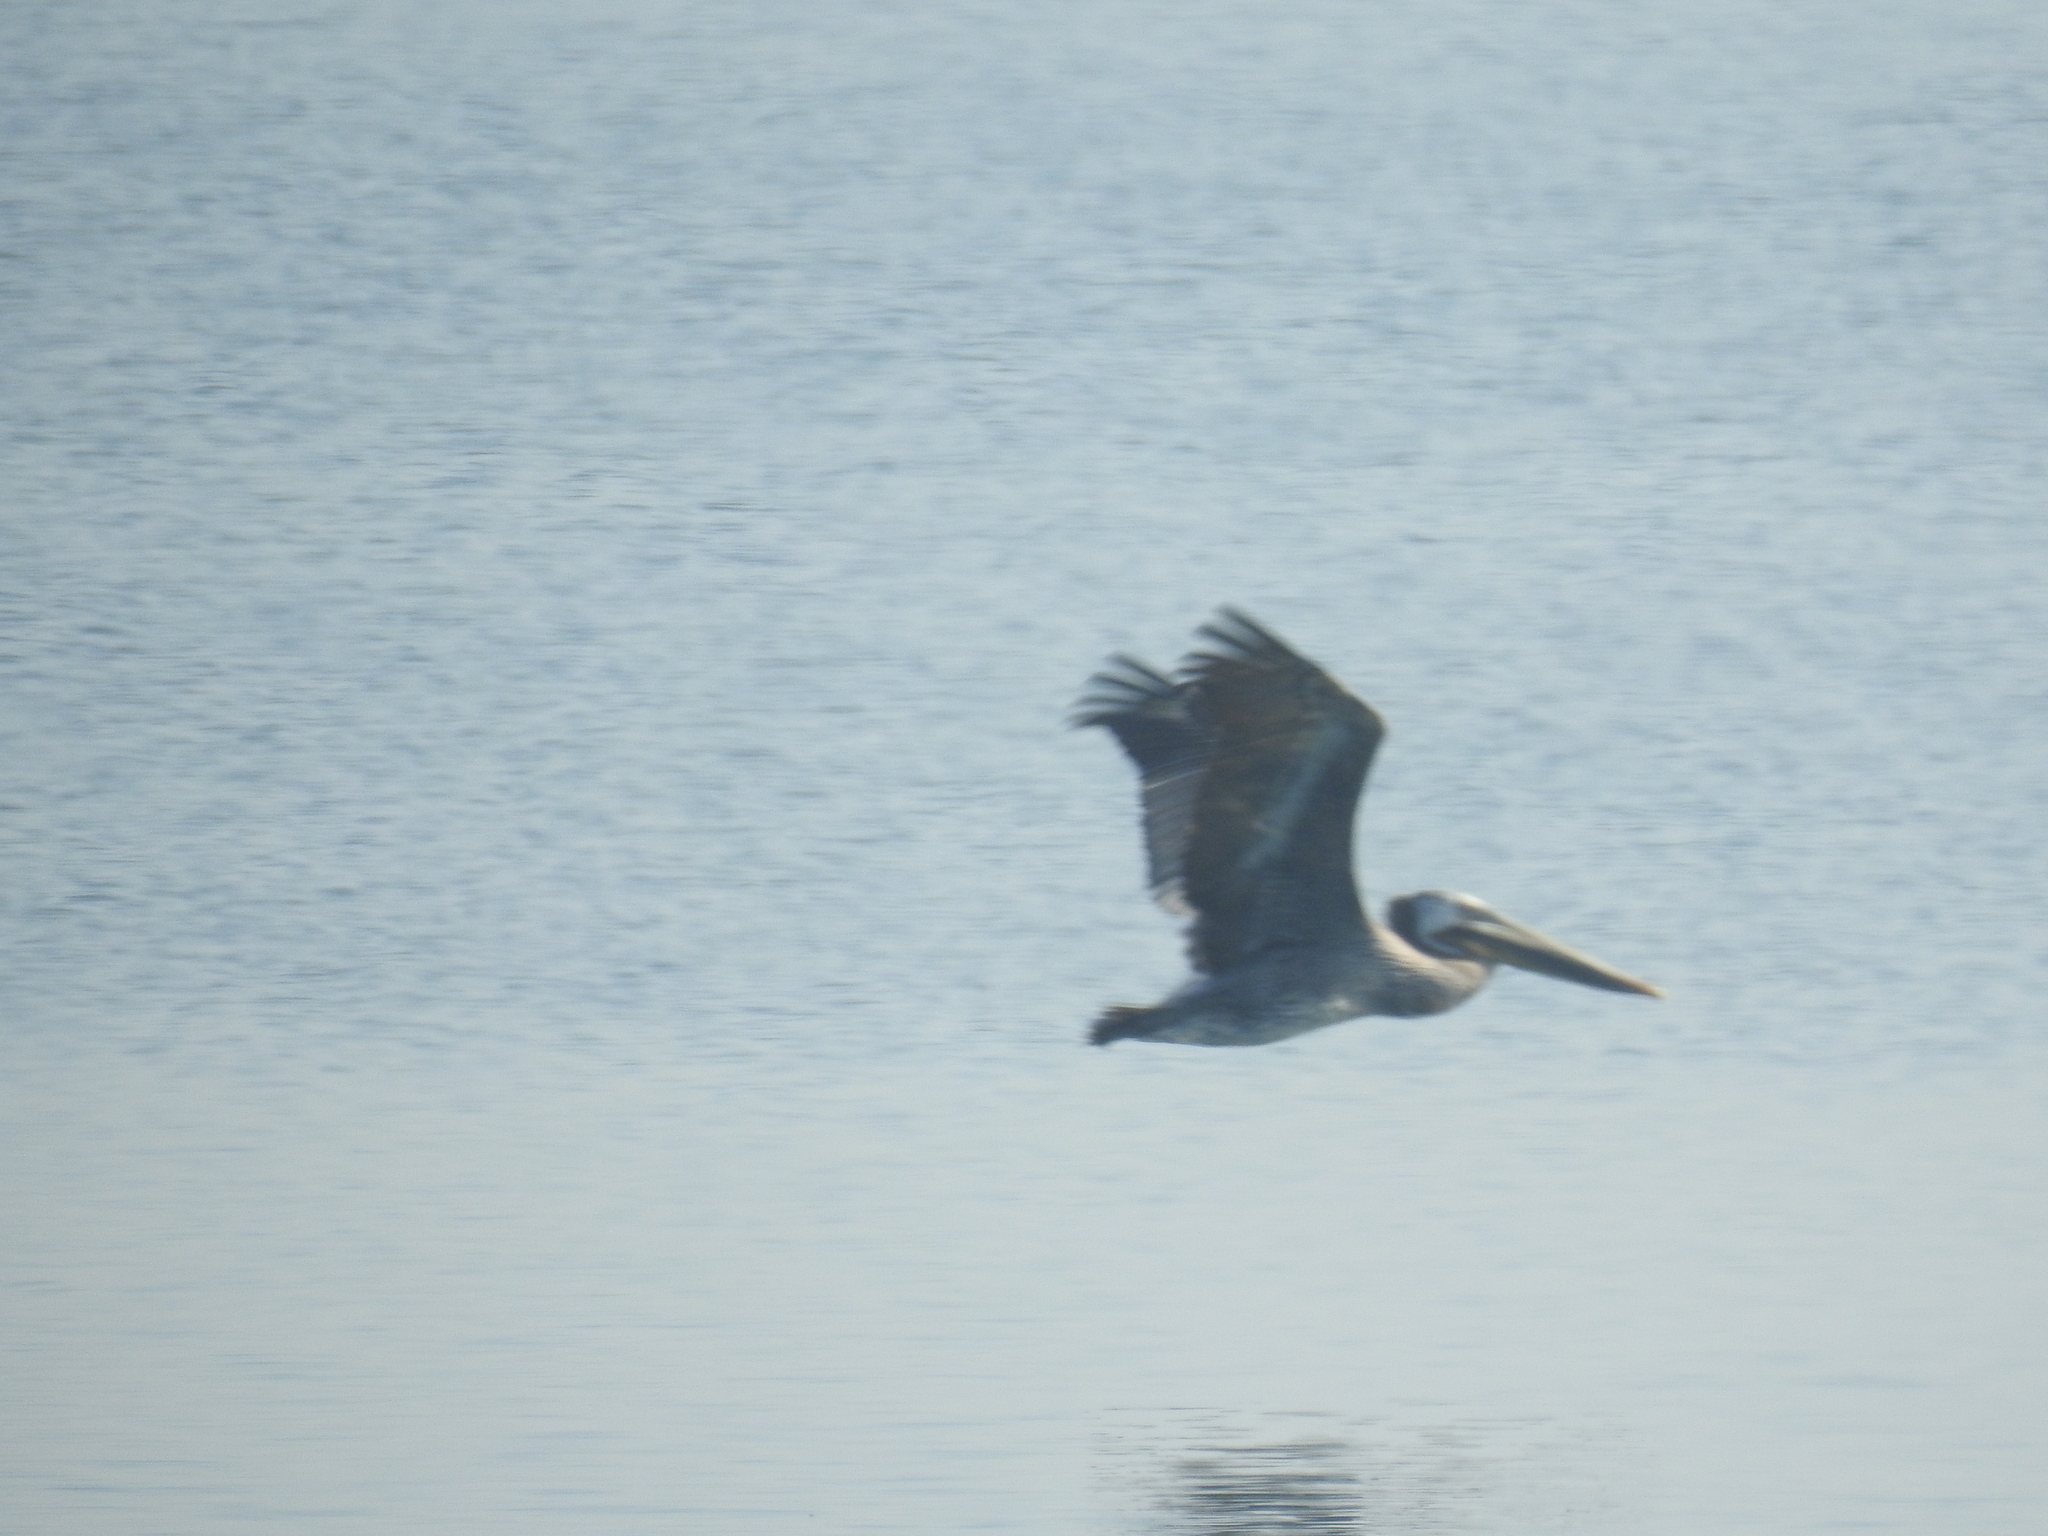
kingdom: Animalia
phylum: Chordata
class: Aves
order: Pelecaniformes
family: Pelecanidae
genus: Pelecanus
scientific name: Pelecanus occidentalis
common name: Brown pelican
